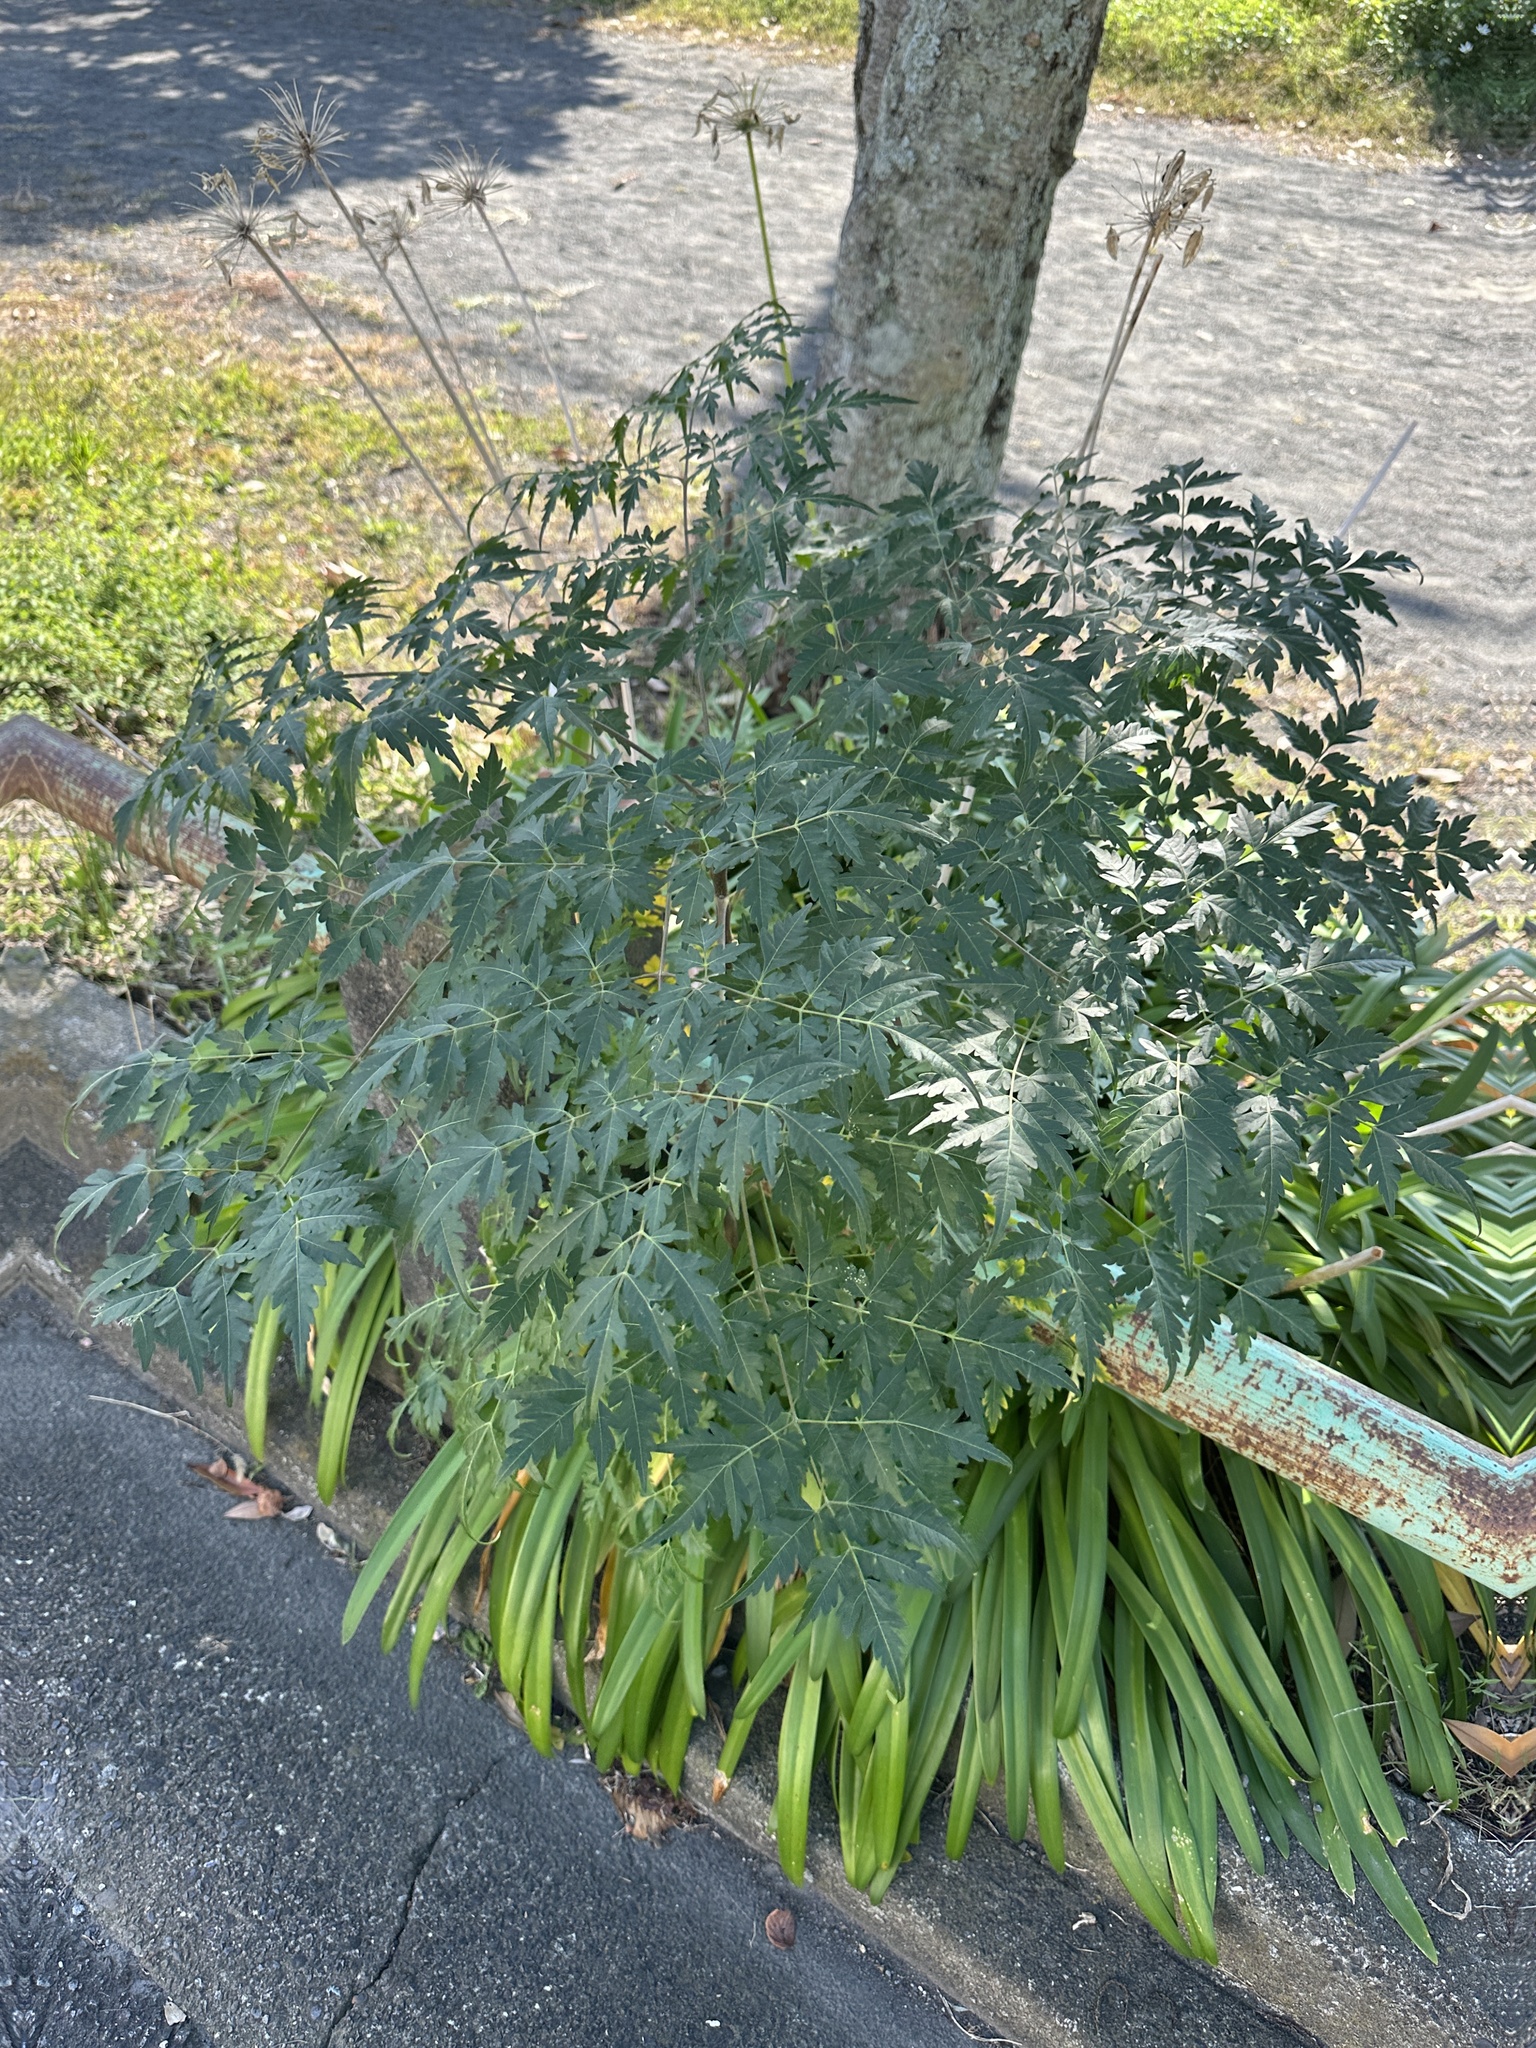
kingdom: Plantae
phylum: Tracheophyta
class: Magnoliopsida
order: Sapindales
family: Meliaceae
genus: Melia
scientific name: Melia azedarach
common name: Chinaberrytree
